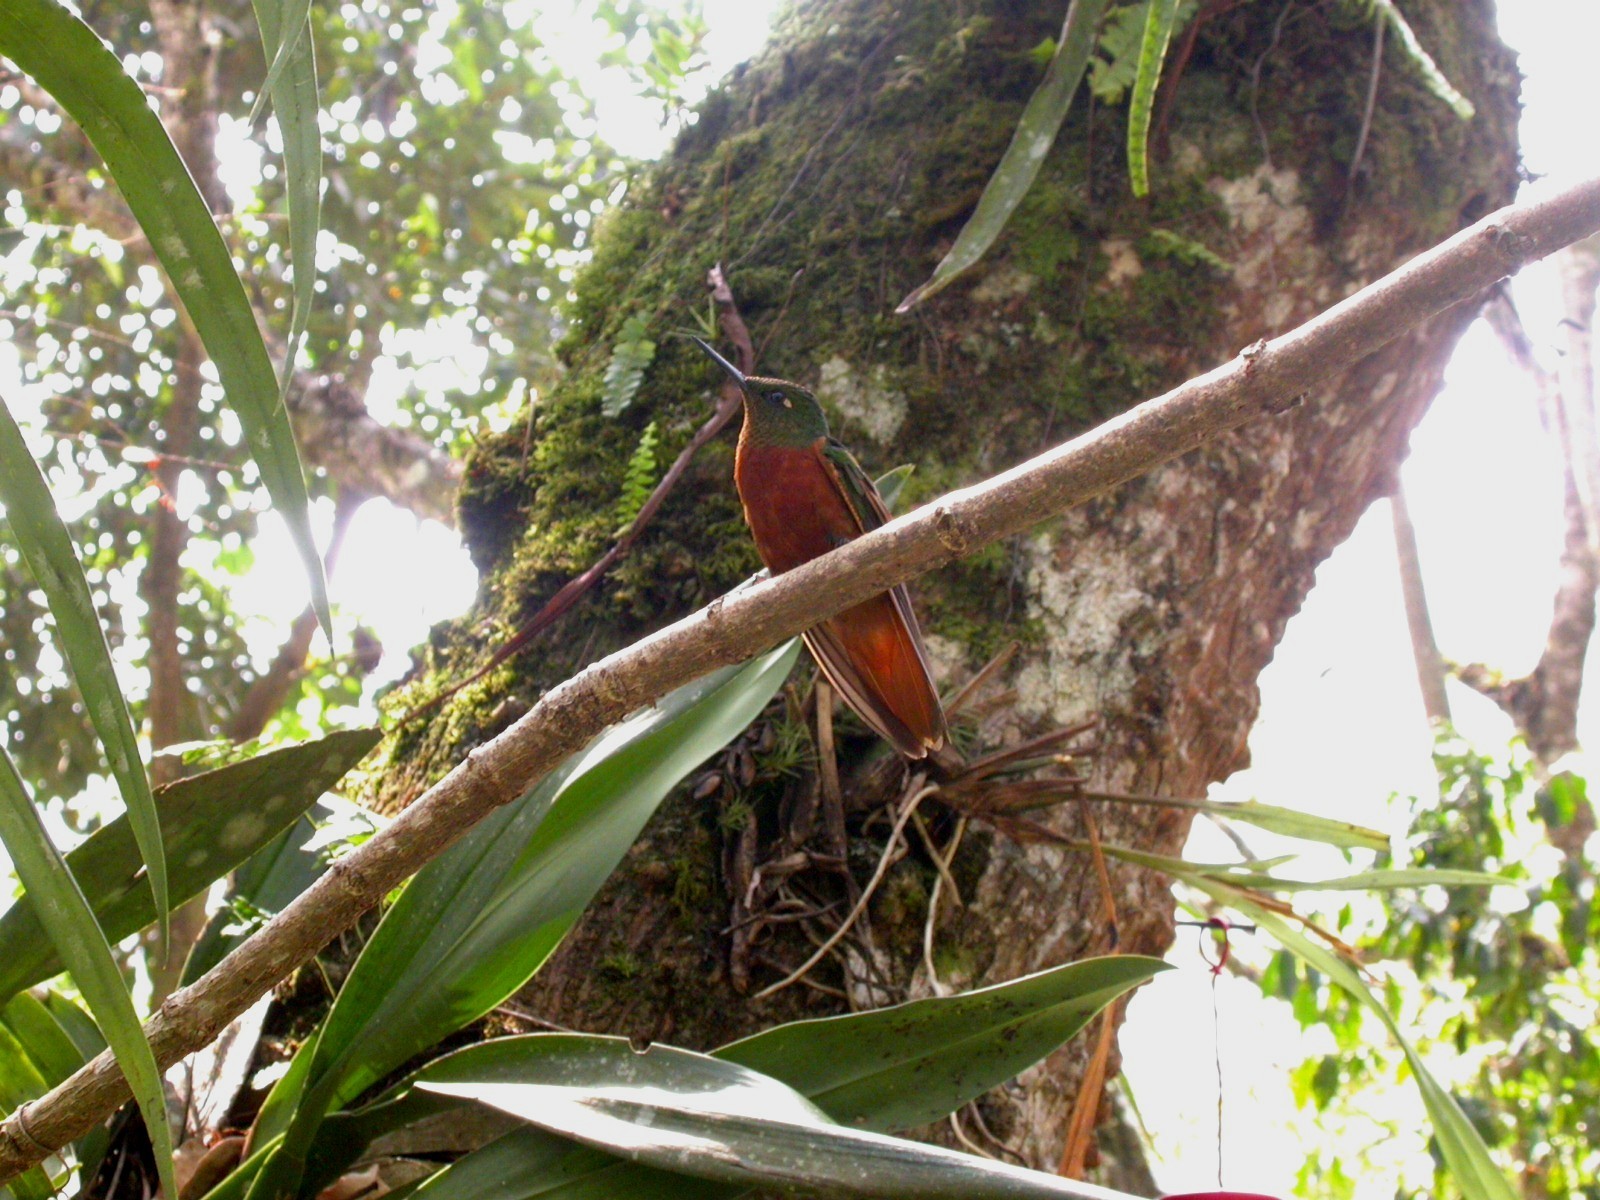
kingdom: Animalia
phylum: Chordata
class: Aves
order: Apodiformes
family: Trochilidae
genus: Boissonneaua
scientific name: Boissonneaua matthewsii
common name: Chestnut-breasted coronet
